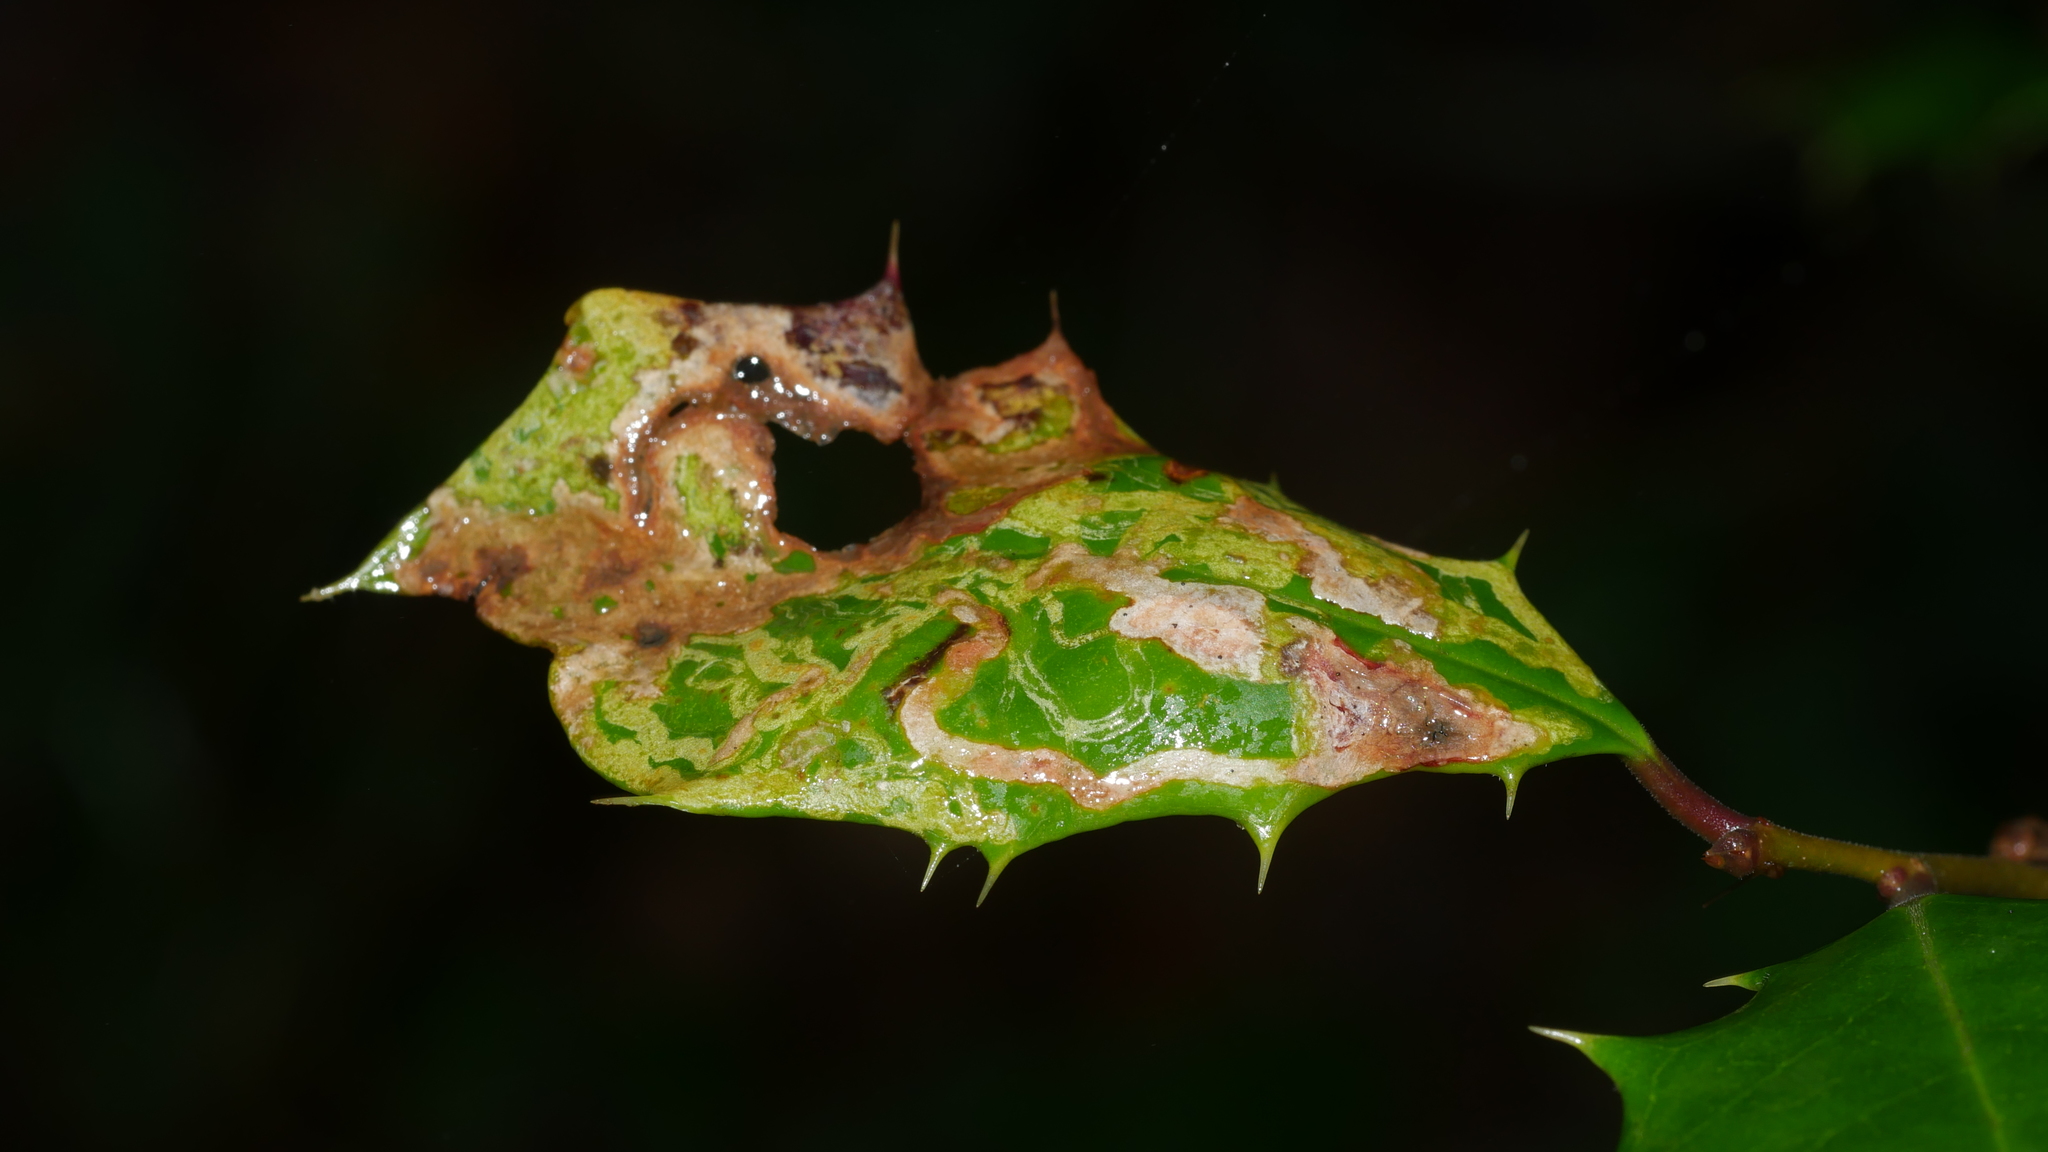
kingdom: Animalia
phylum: Arthropoda
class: Insecta
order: Diptera
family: Agromyzidae
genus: Phytomyza
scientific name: Phytomyza opacae
